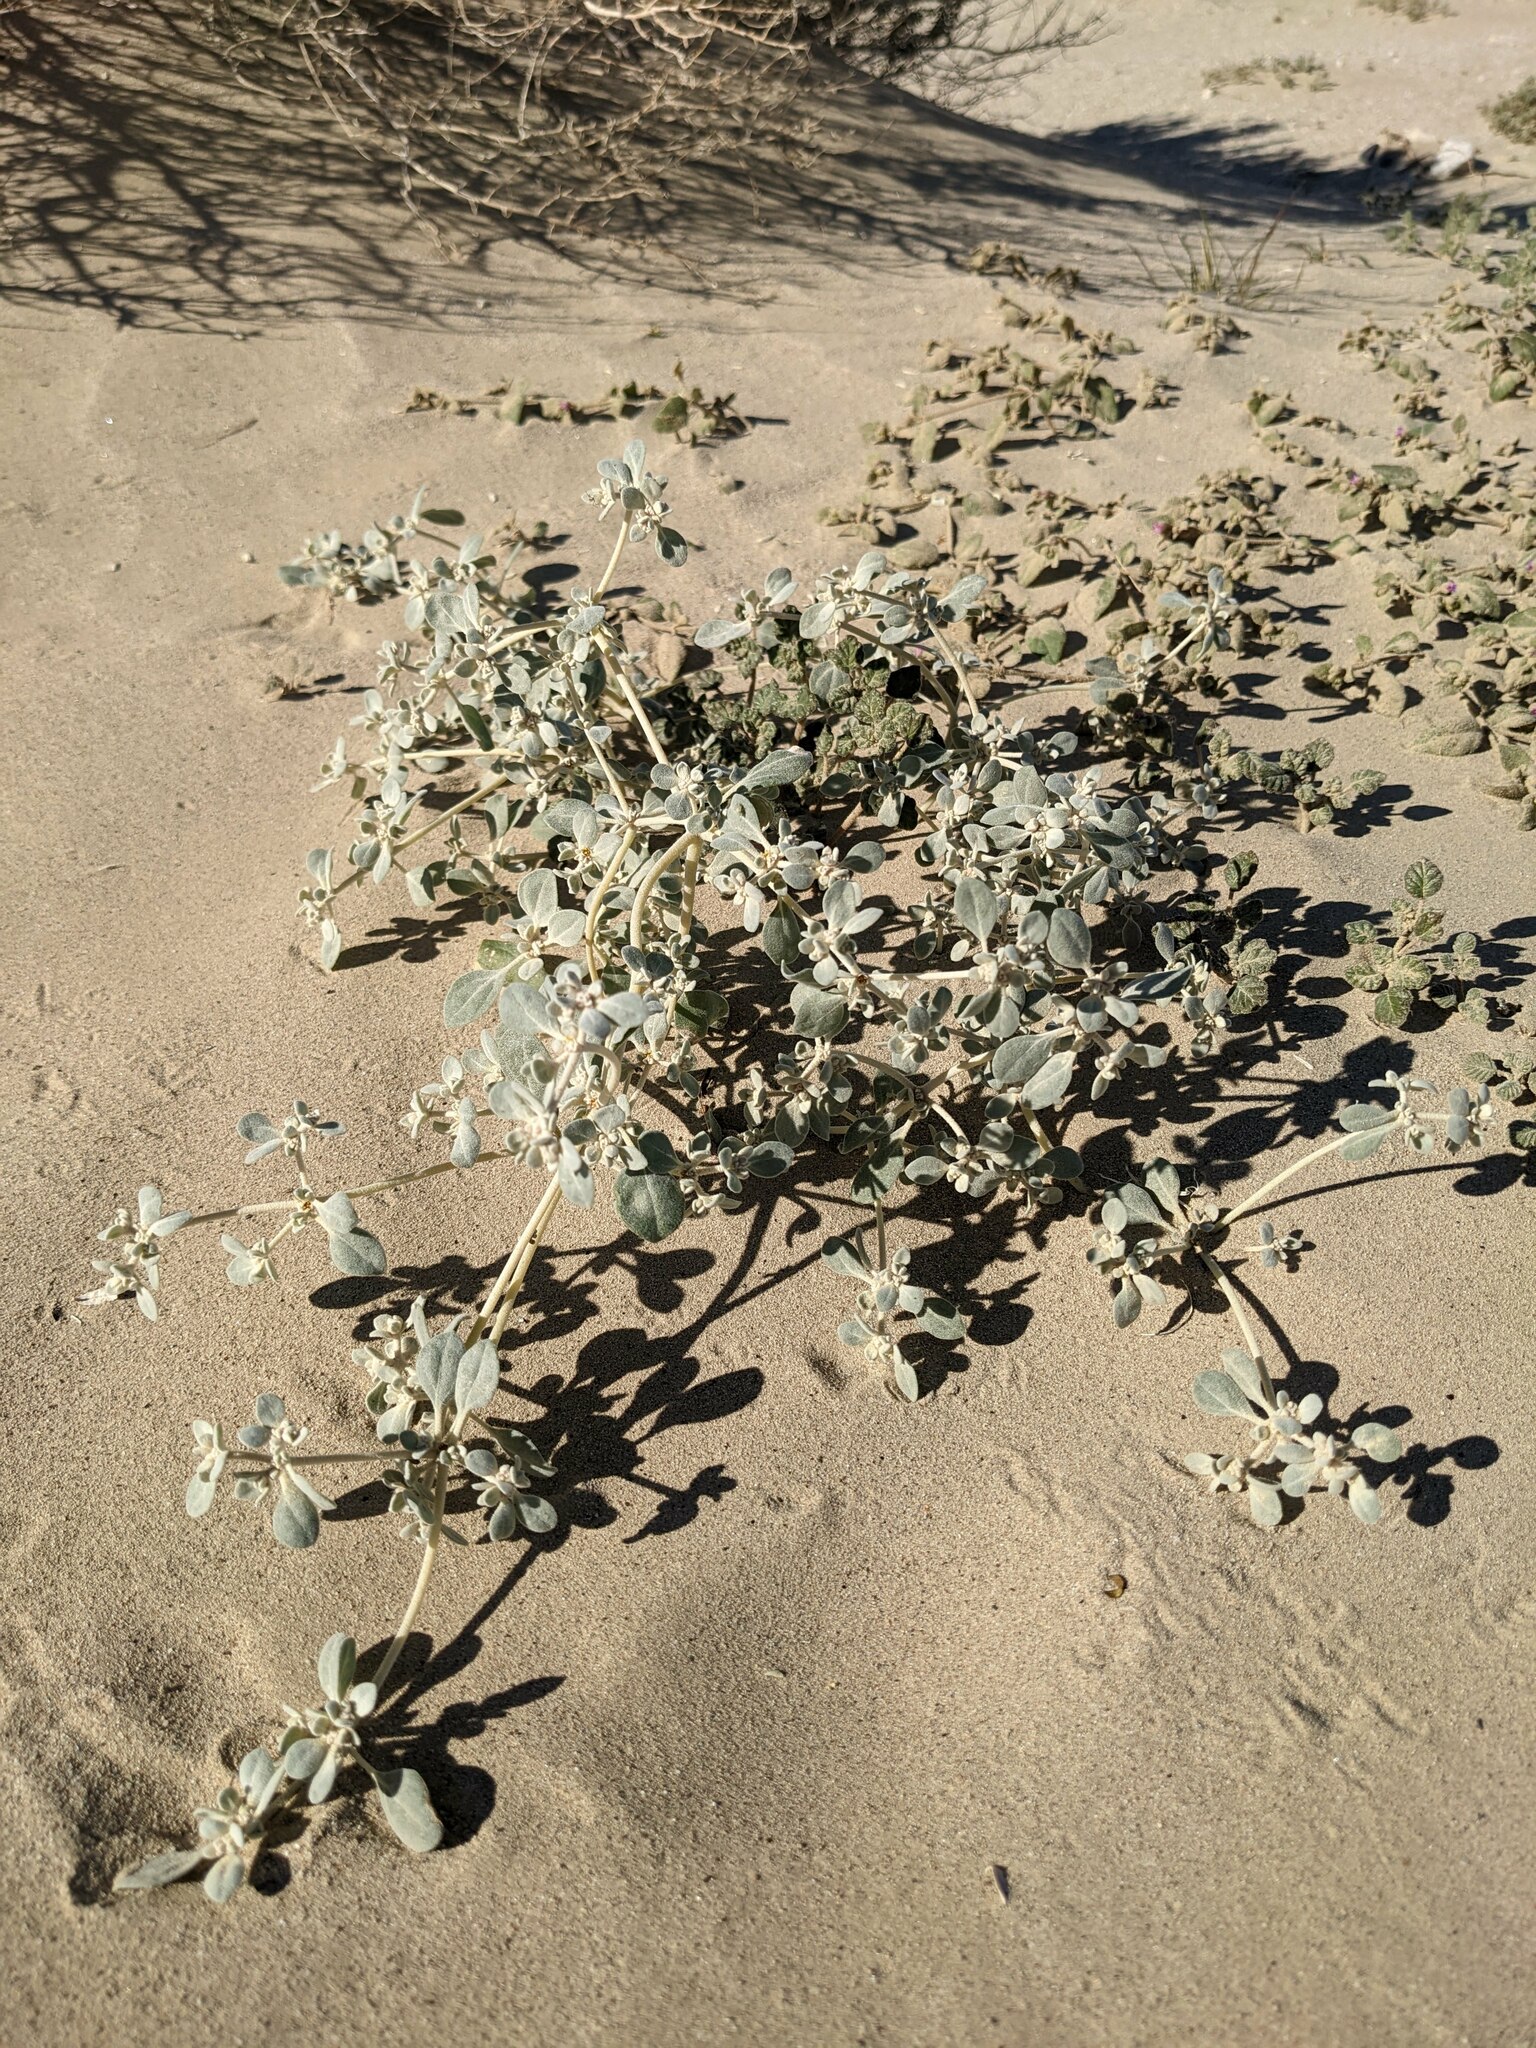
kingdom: Plantae
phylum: Tracheophyta
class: Magnoliopsida
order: Caryophyllales
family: Amaranthaceae
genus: Tidestromia
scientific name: Tidestromia suffruticosa
